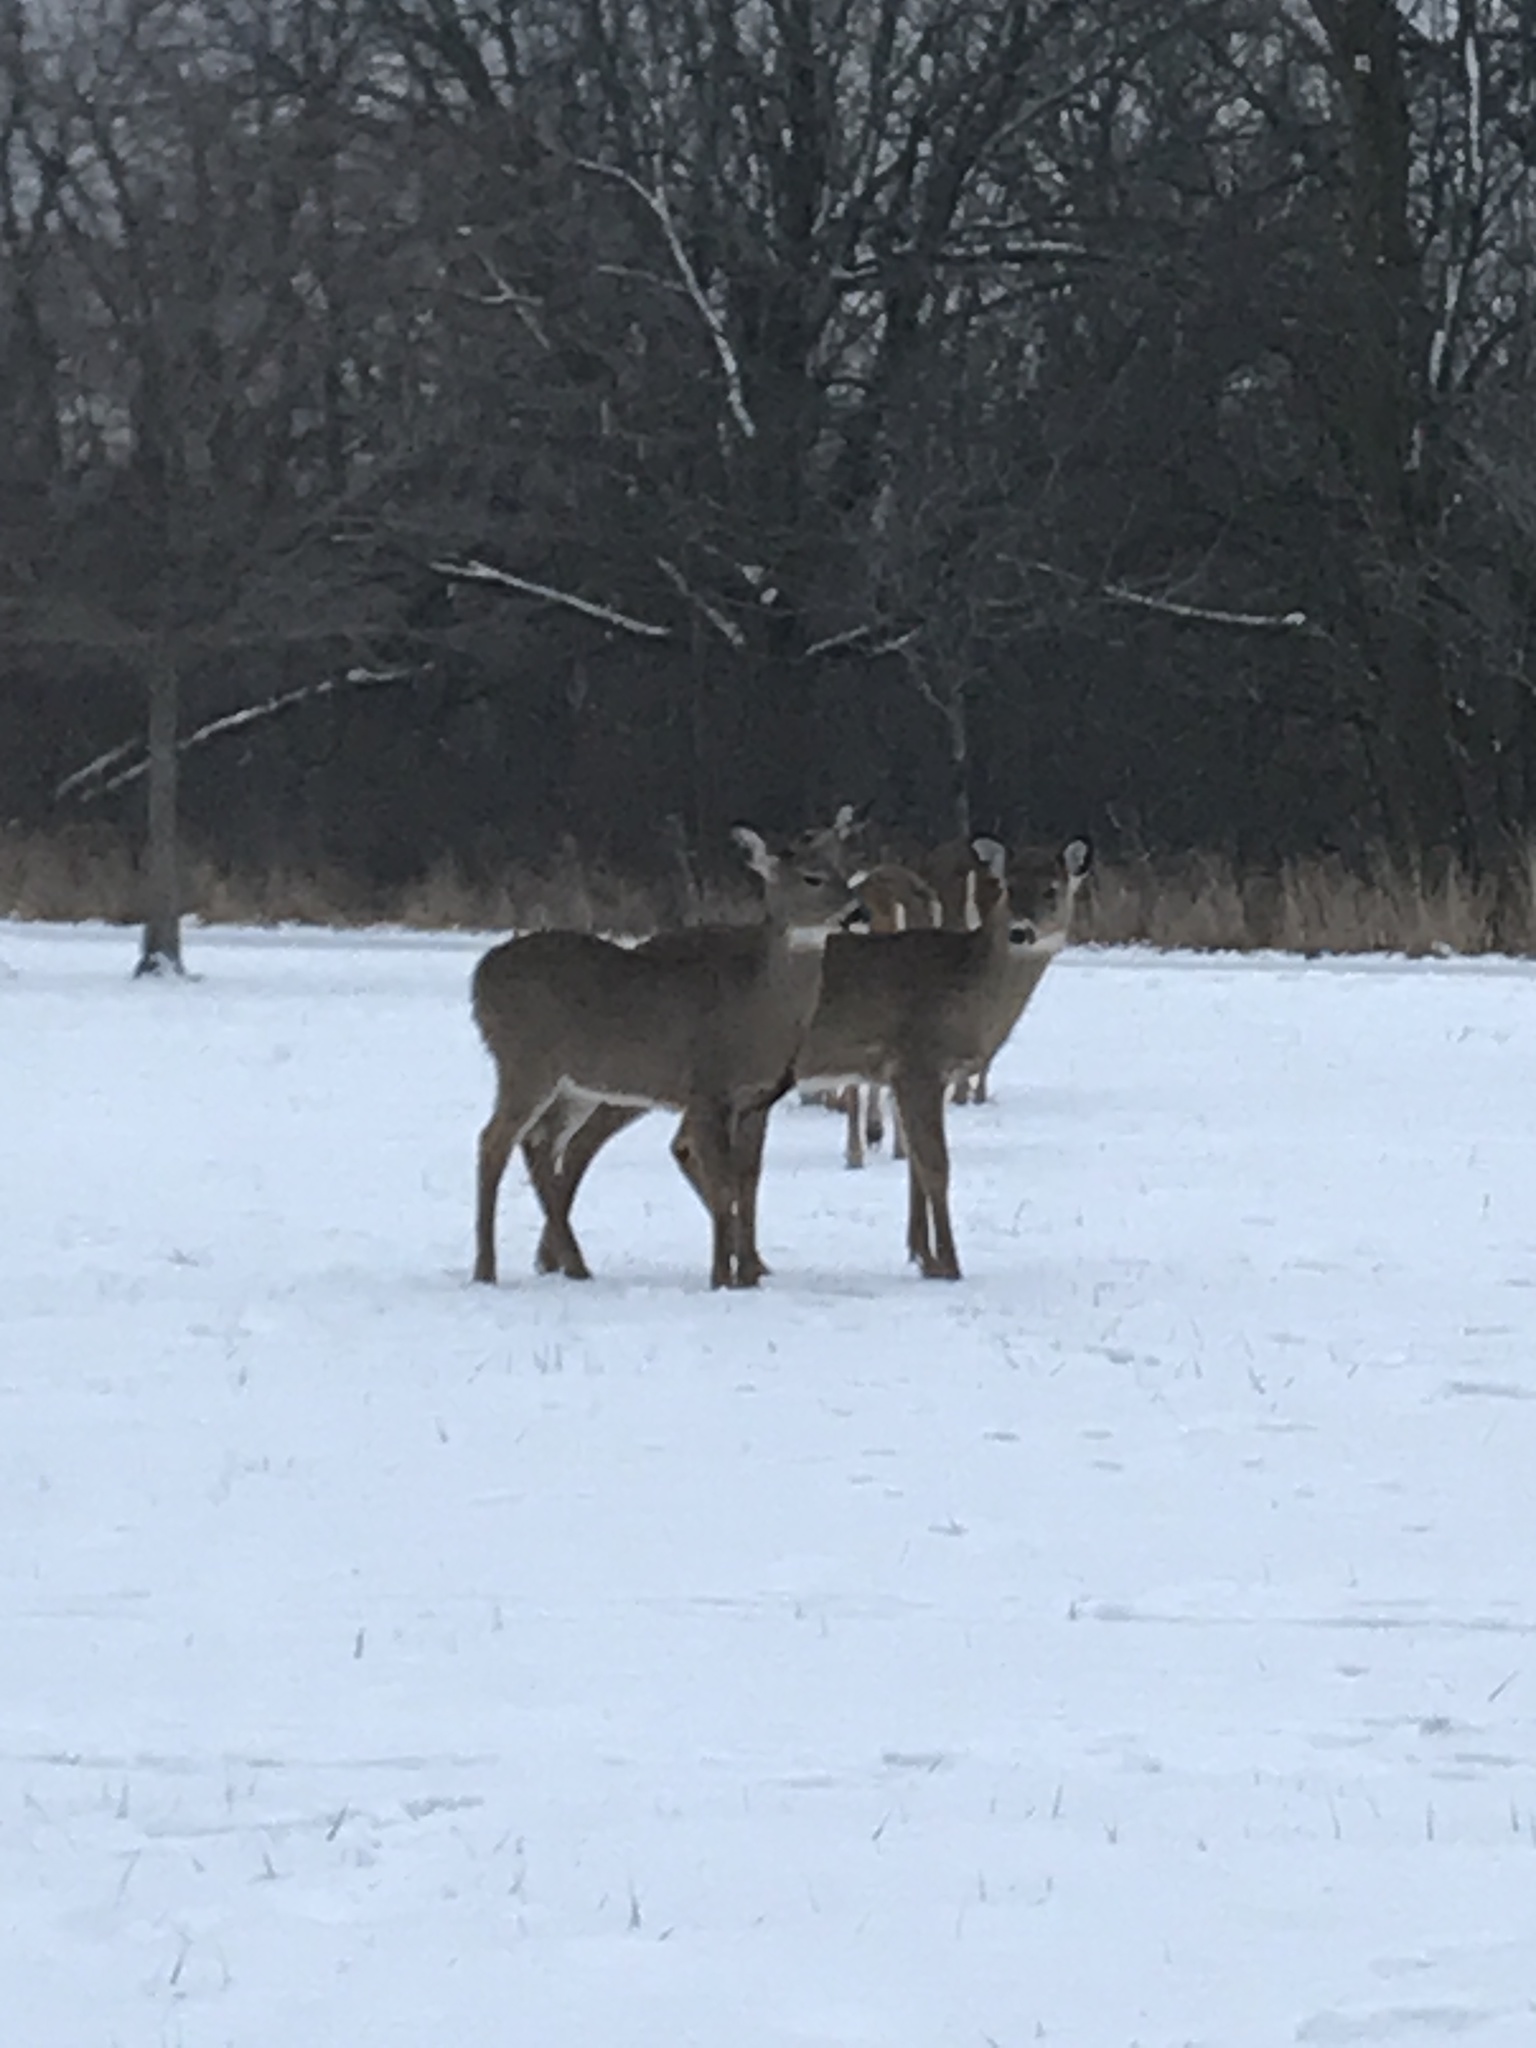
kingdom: Animalia
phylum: Chordata
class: Mammalia
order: Artiodactyla
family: Cervidae
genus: Odocoileus
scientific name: Odocoileus virginianus
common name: White-tailed deer
